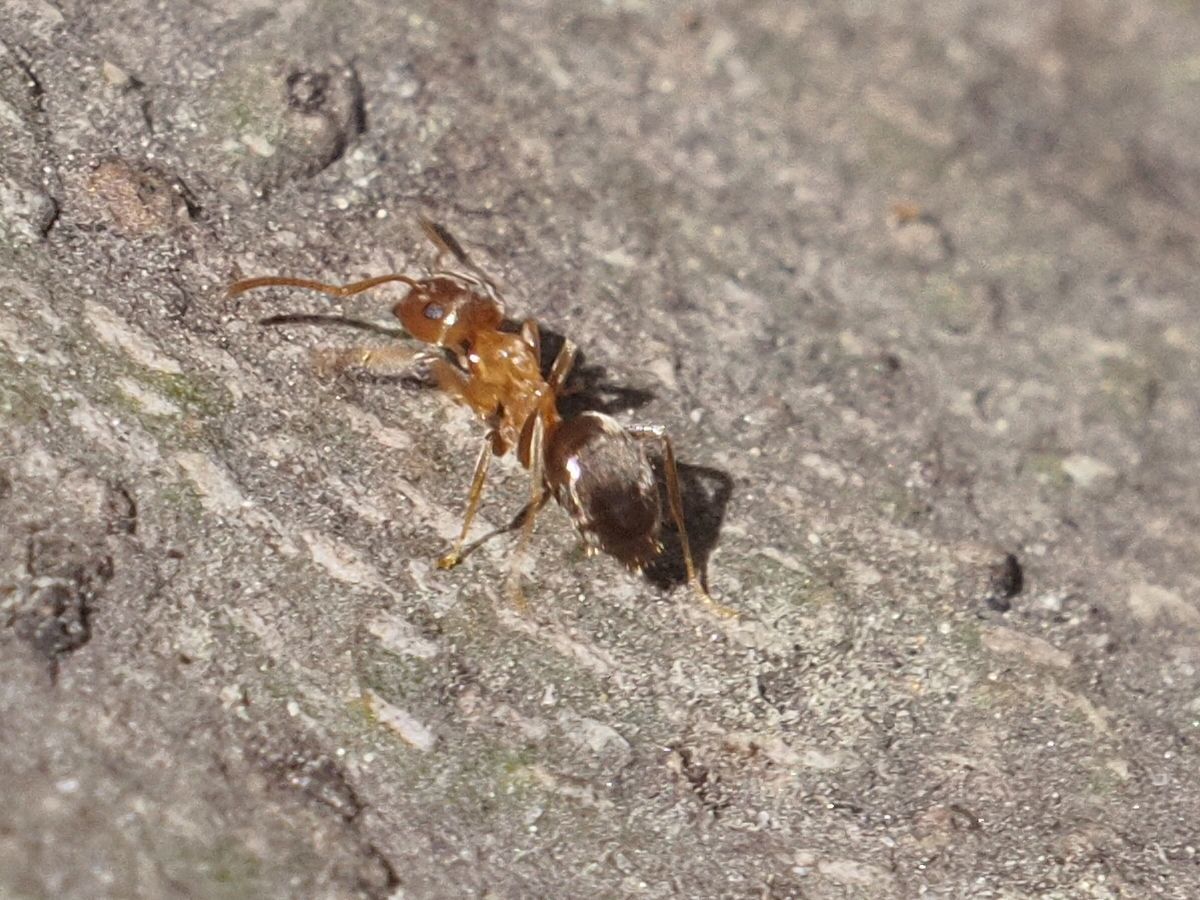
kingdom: Animalia
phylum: Arthropoda
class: Insecta
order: Hymenoptera
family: Formicidae
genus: Lasius
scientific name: Lasius brunneus
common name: Brown ant
